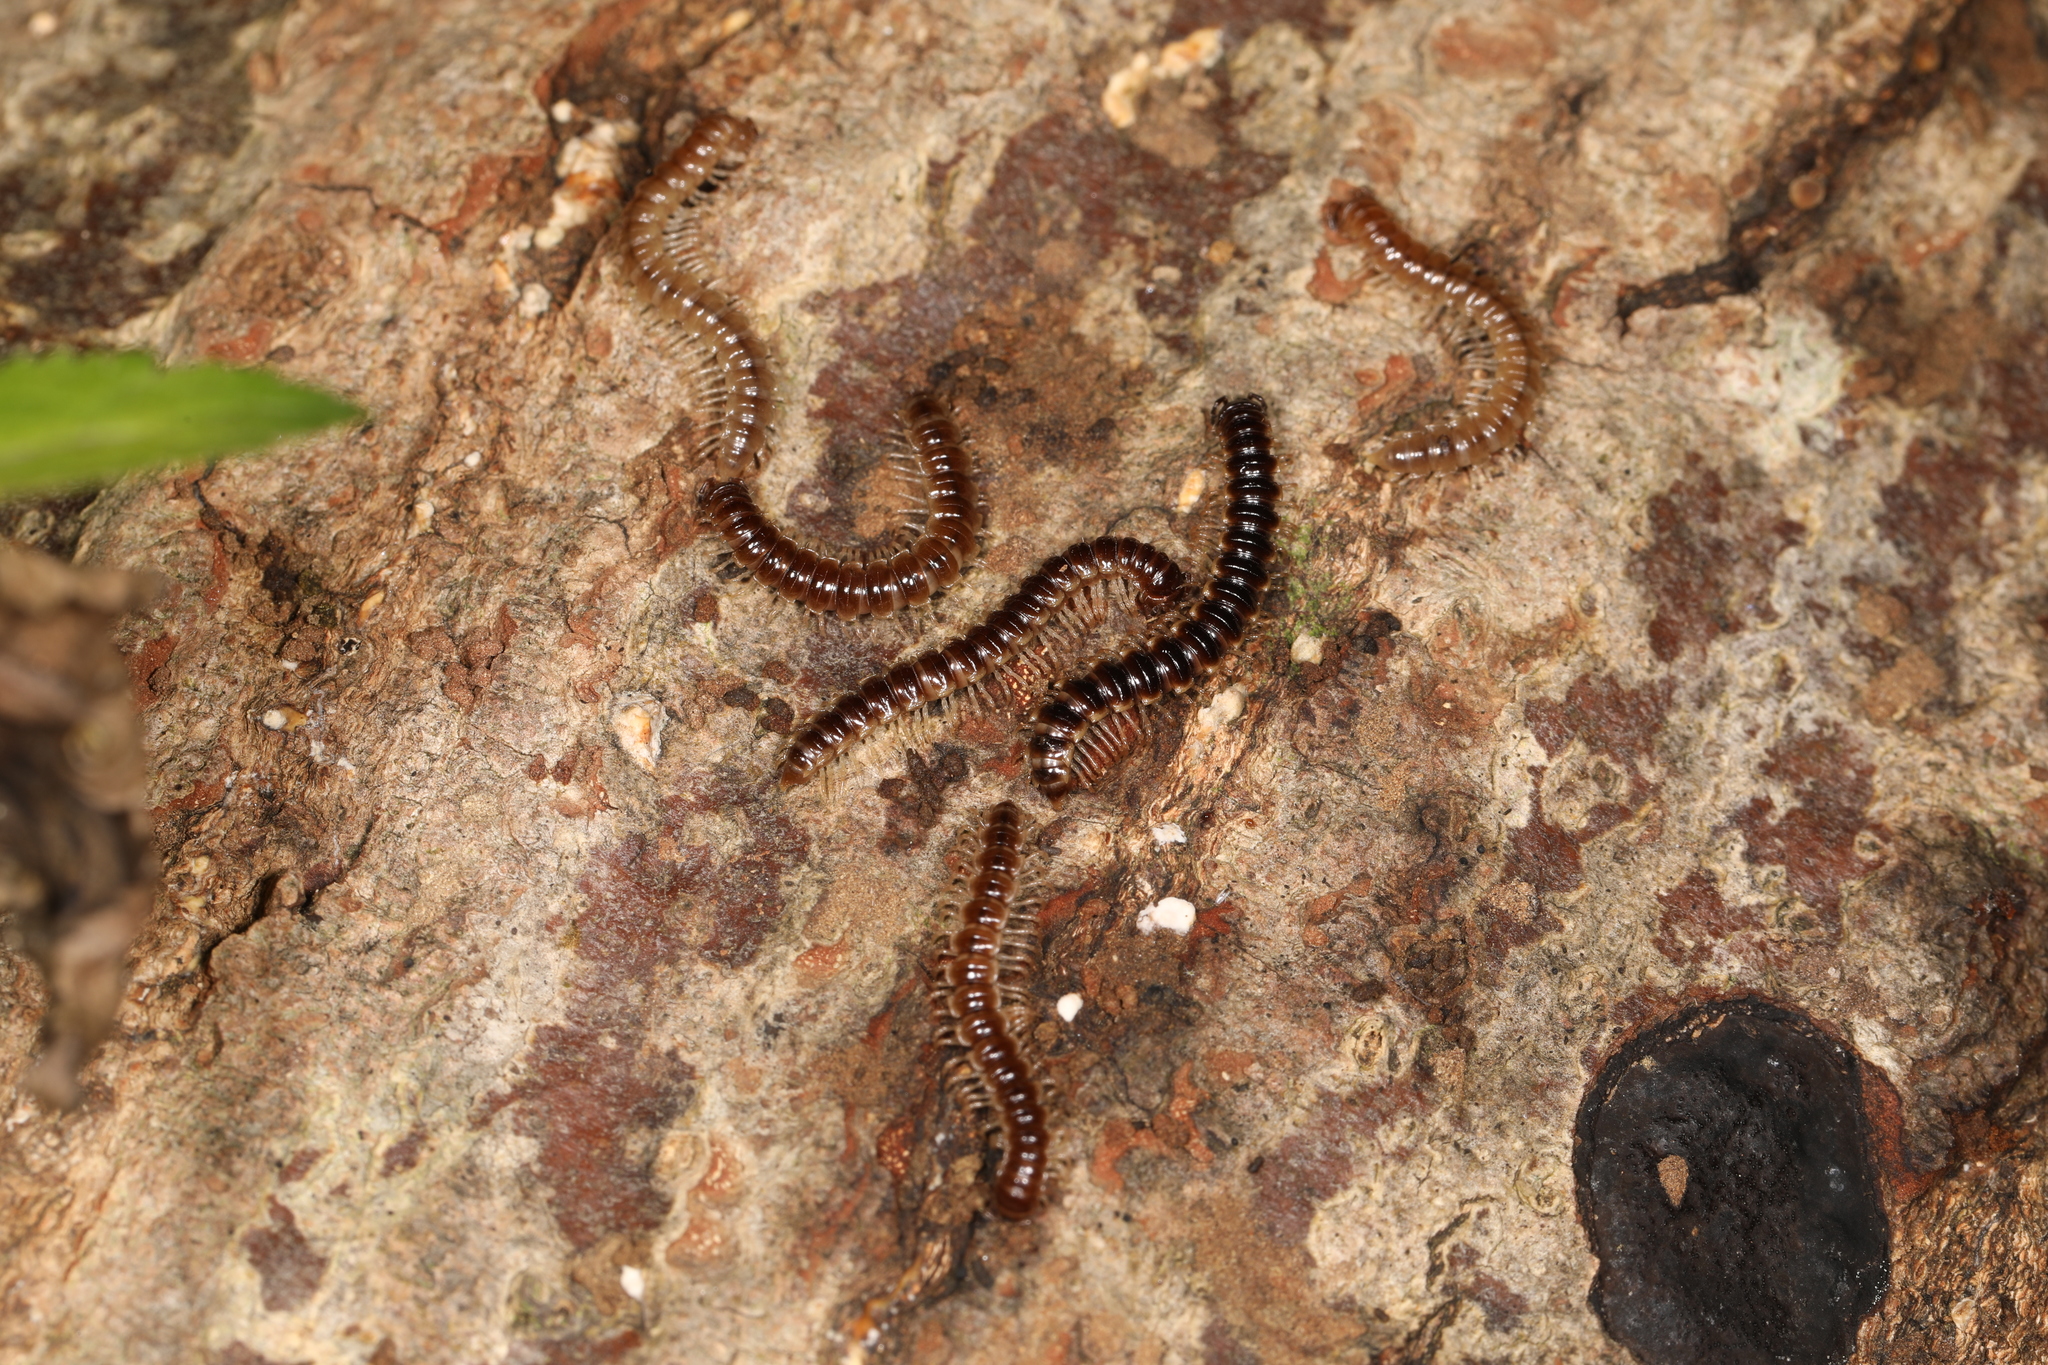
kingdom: Animalia
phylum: Arthropoda
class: Diplopoda
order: Polydesmida
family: Paradoxosomatidae
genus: Oxidus
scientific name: Oxidus gracilis
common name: Greenhouse millipede
